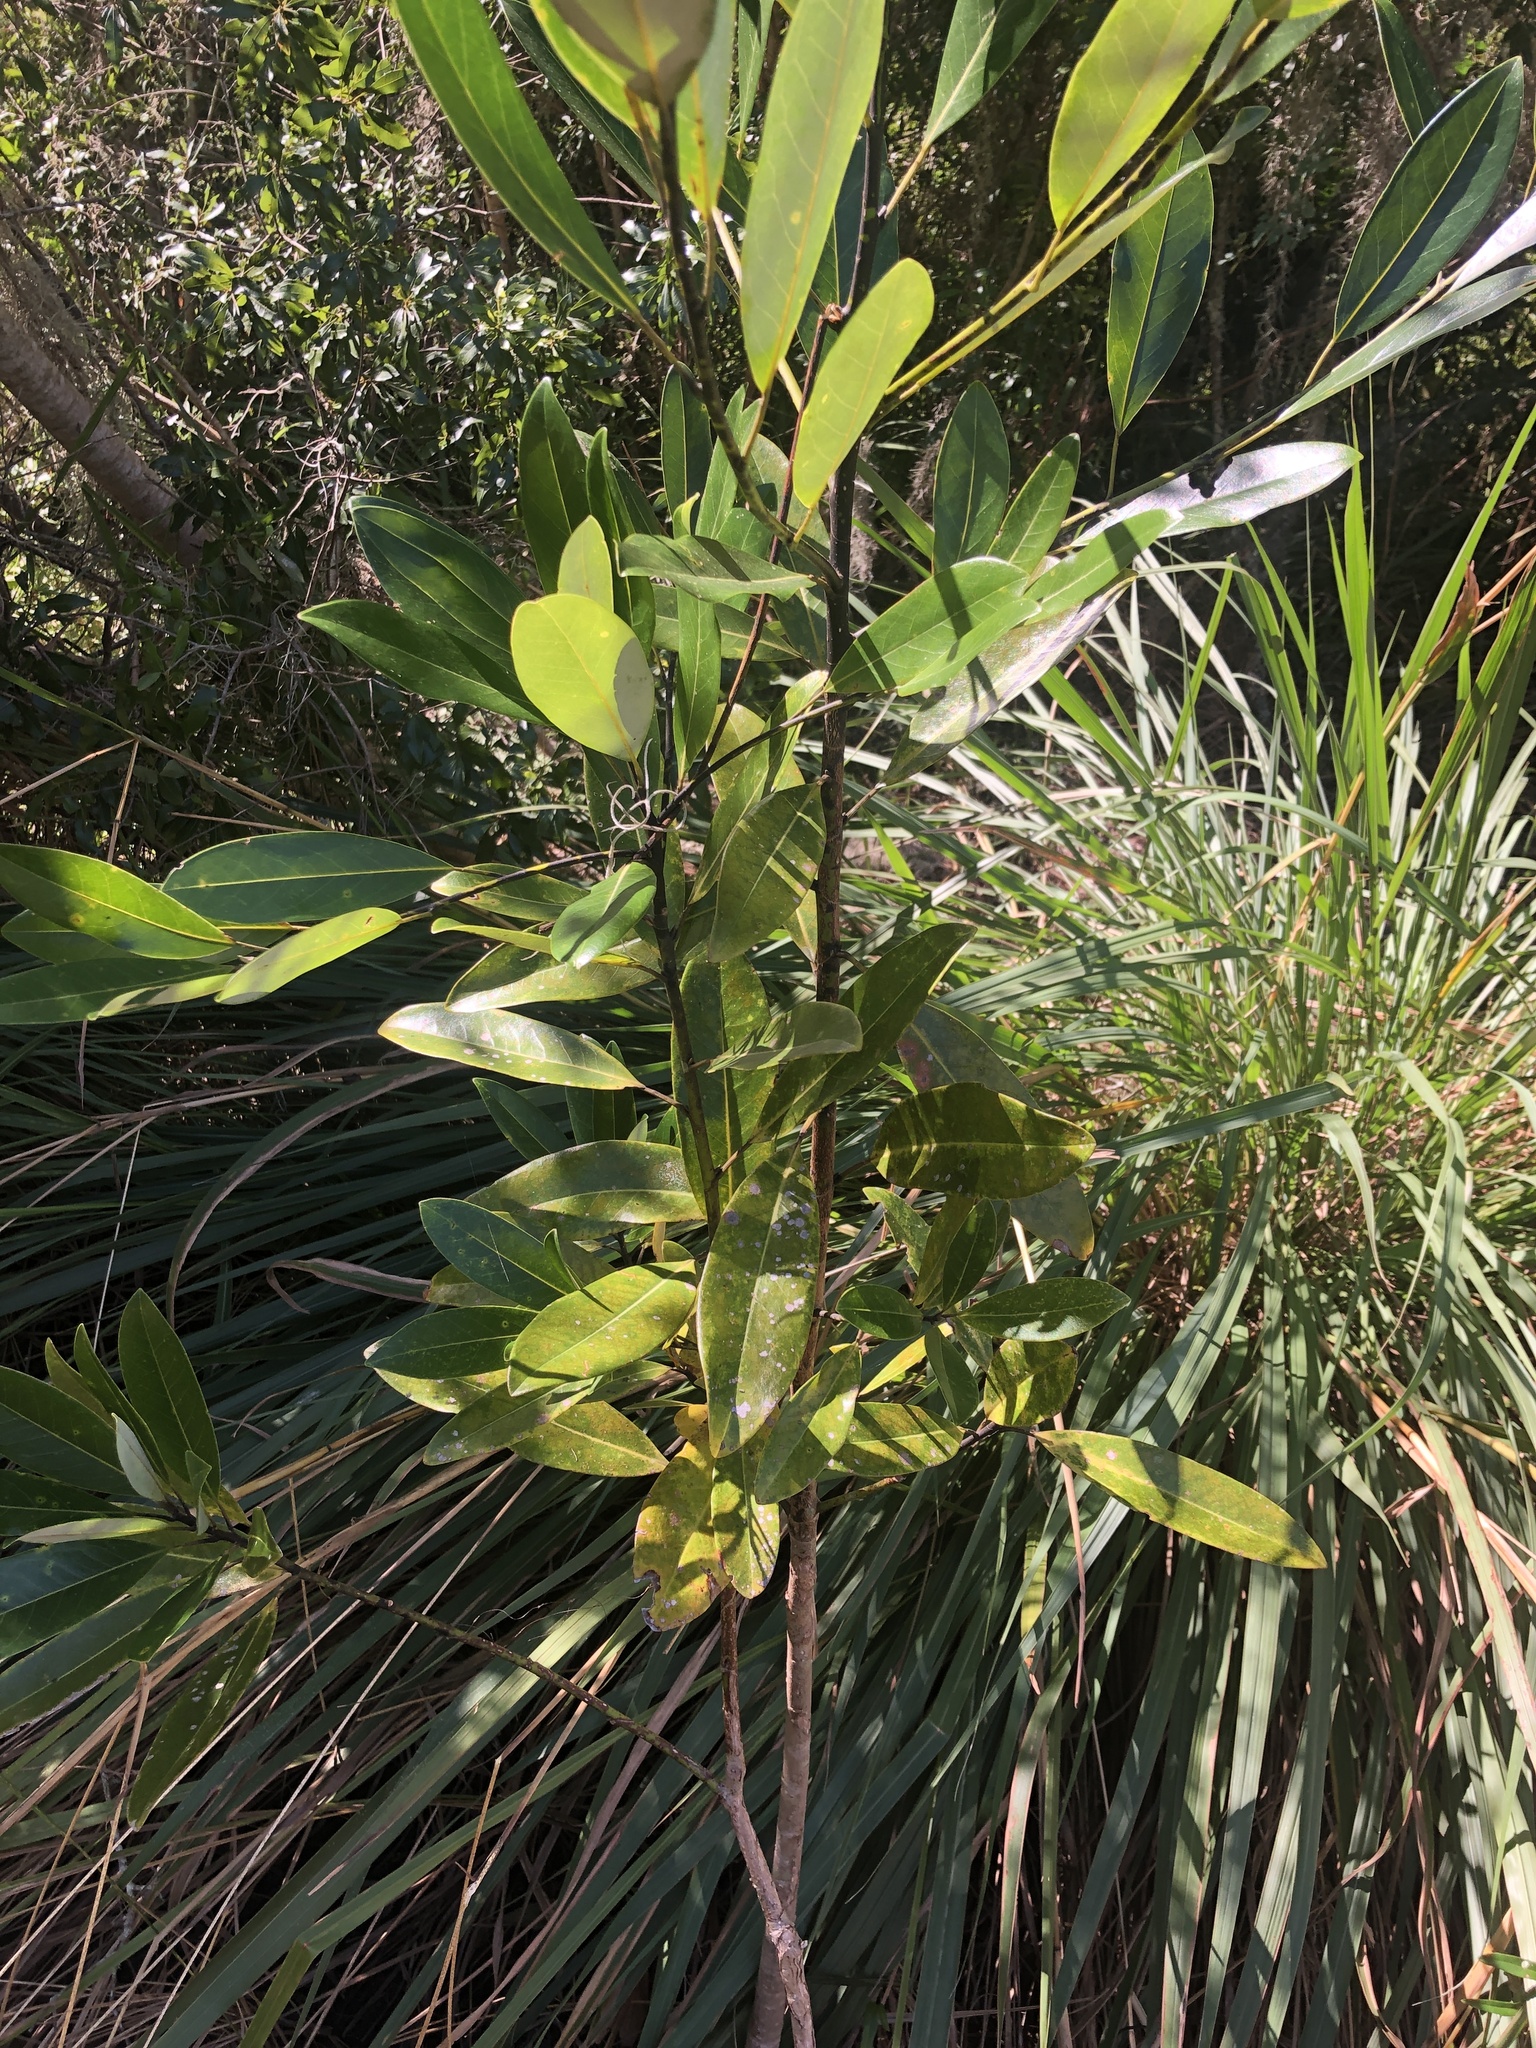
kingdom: Plantae
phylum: Tracheophyta
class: Magnoliopsida
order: Magnoliales
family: Magnoliaceae
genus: Magnolia
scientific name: Magnolia virginiana
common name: Swamp bay
